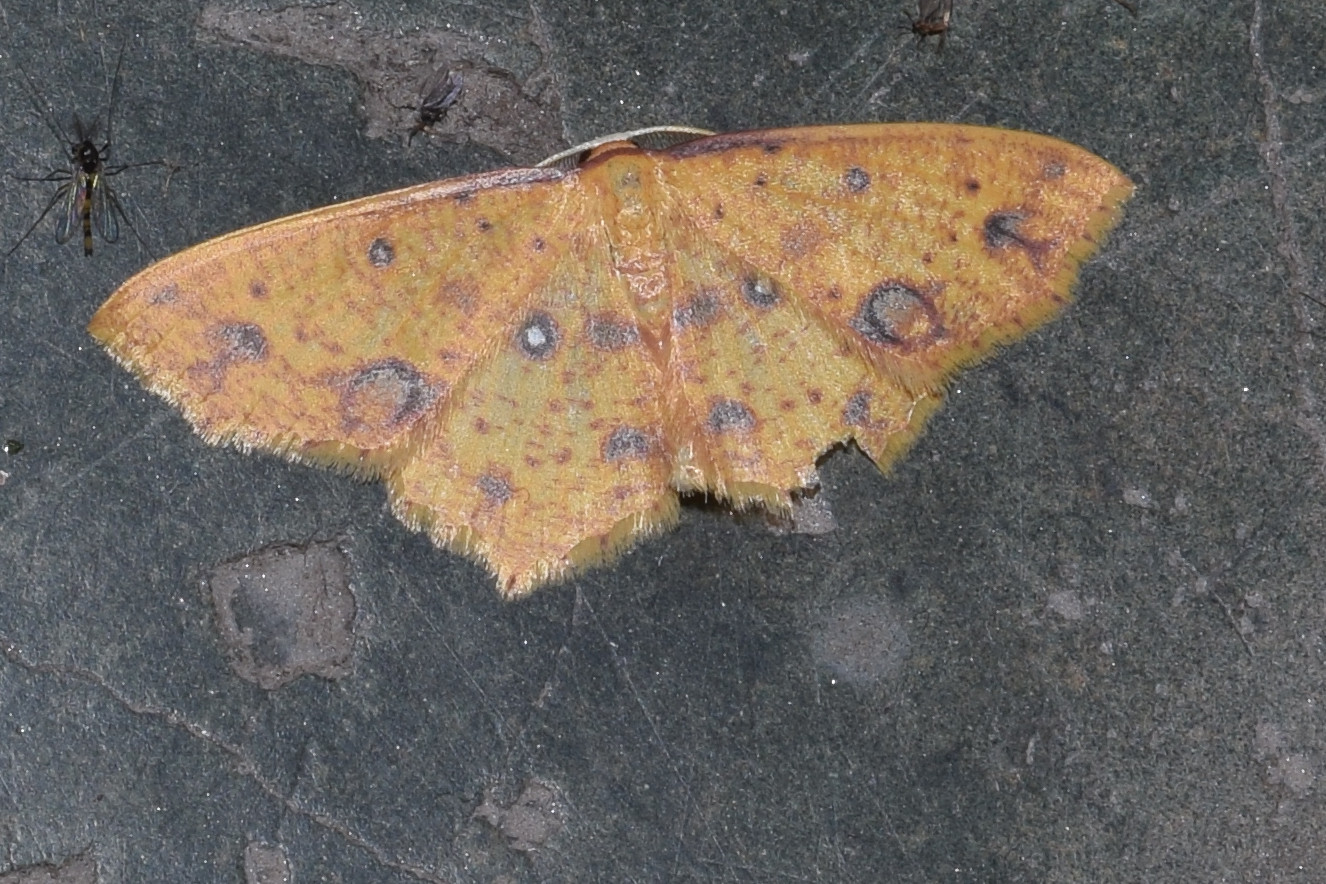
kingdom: Animalia
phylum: Arthropoda
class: Insecta
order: Lepidoptera
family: Geometridae
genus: Synegiodes
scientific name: Synegiodes histrionaria
